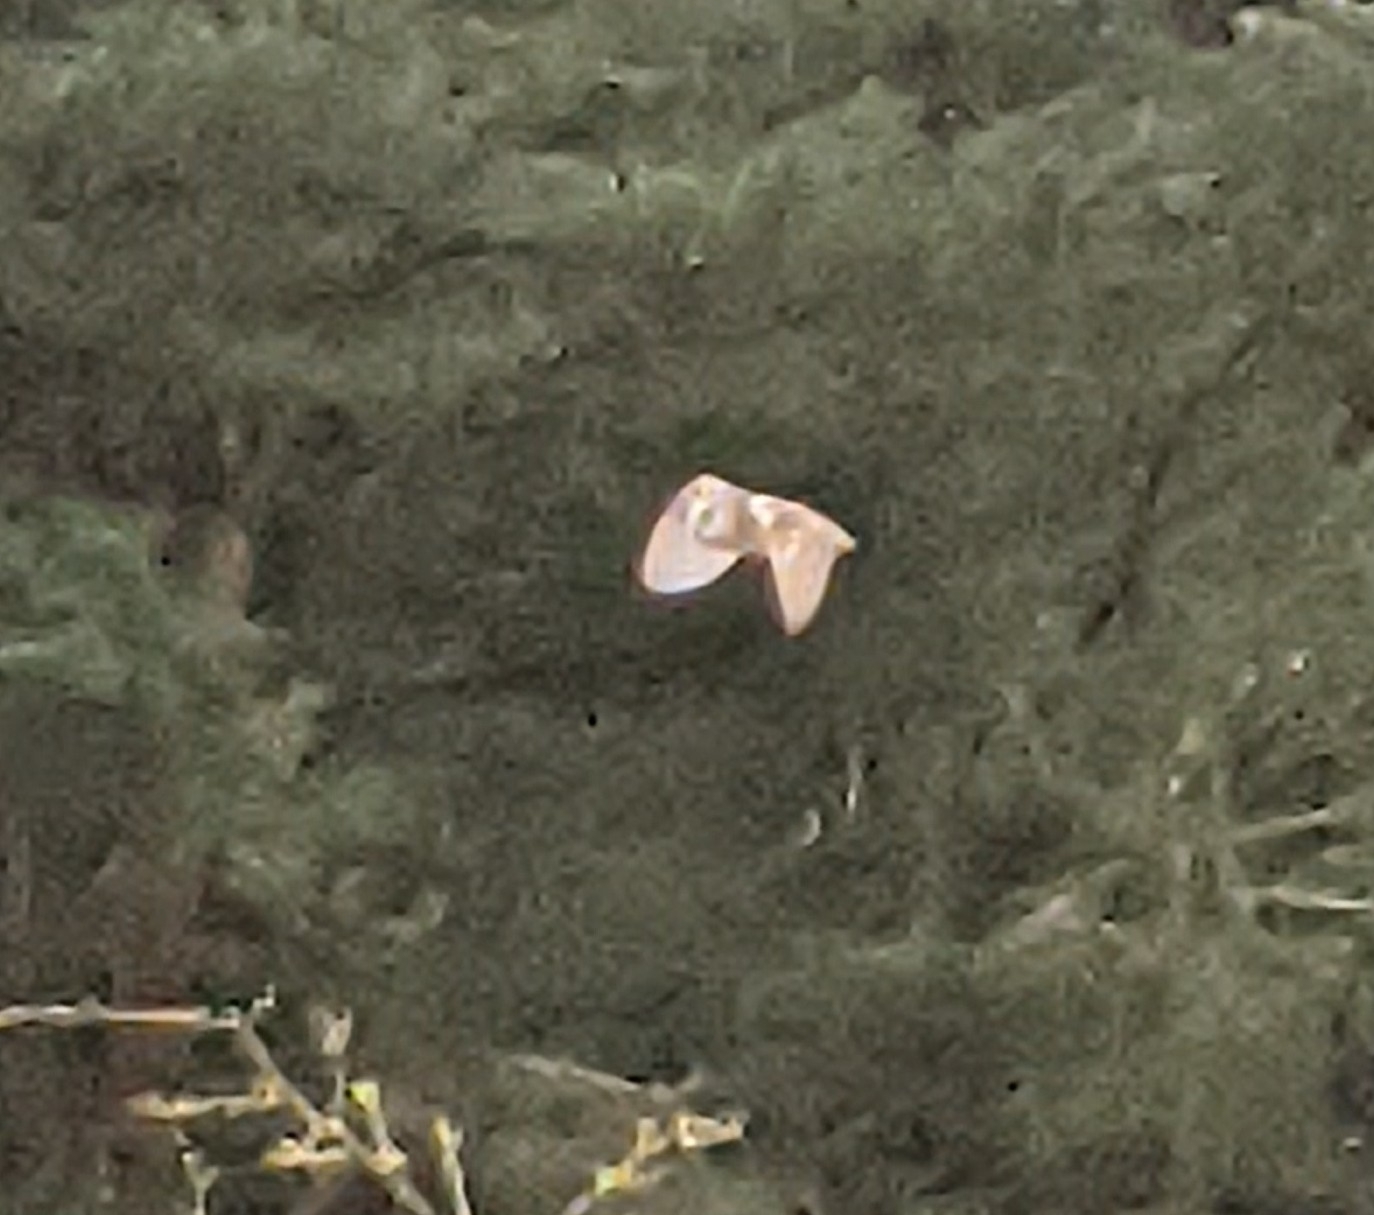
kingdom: Animalia
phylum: Chordata
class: Aves
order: Strigiformes
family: Tytonidae
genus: Tyto
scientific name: Tyto alba
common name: Barn owl
